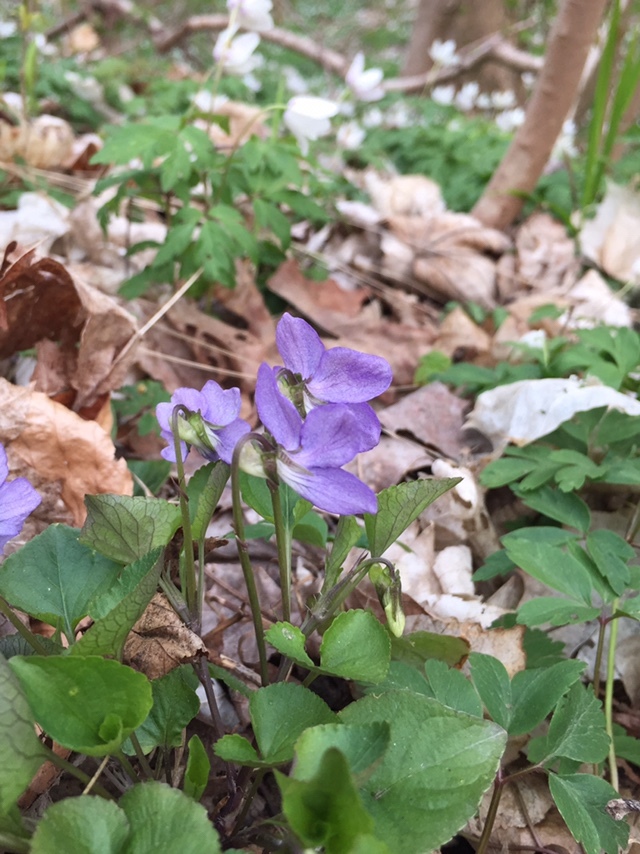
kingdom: Plantae
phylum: Tracheophyta
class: Magnoliopsida
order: Malpighiales
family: Violaceae
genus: Viola
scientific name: Viola riviniana
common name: Common dog-violet
